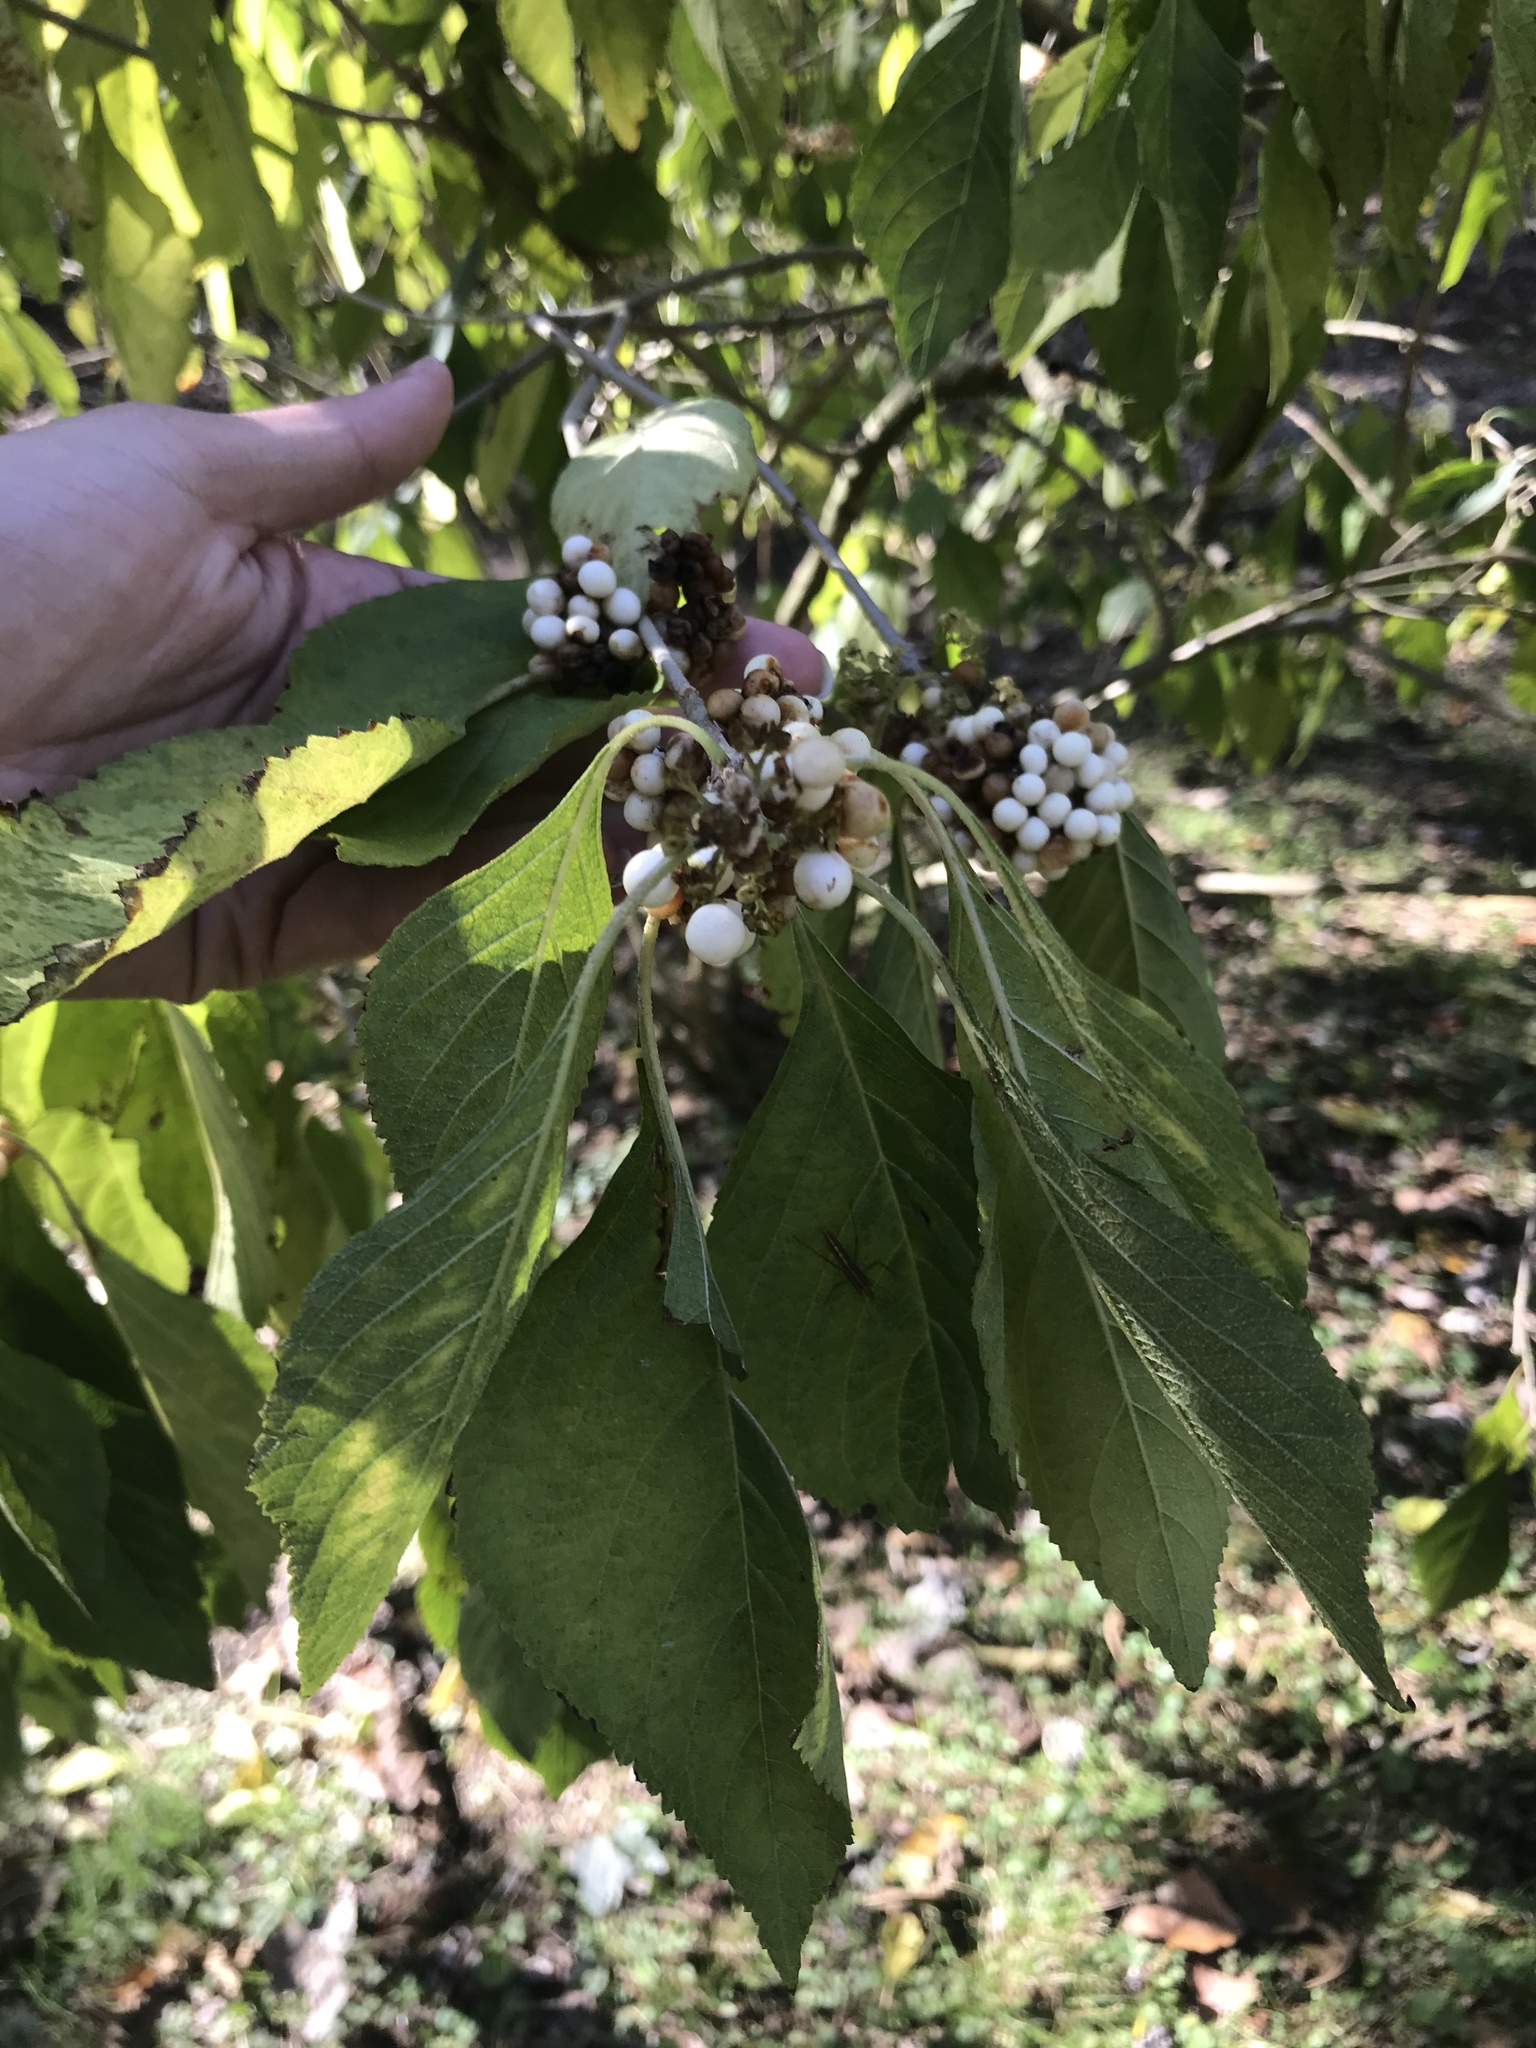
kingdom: Plantae
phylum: Tracheophyta
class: Magnoliopsida
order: Lamiales
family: Lamiaceae
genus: Callicarpa
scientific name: Callicarpa americana
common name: American beautyberry
